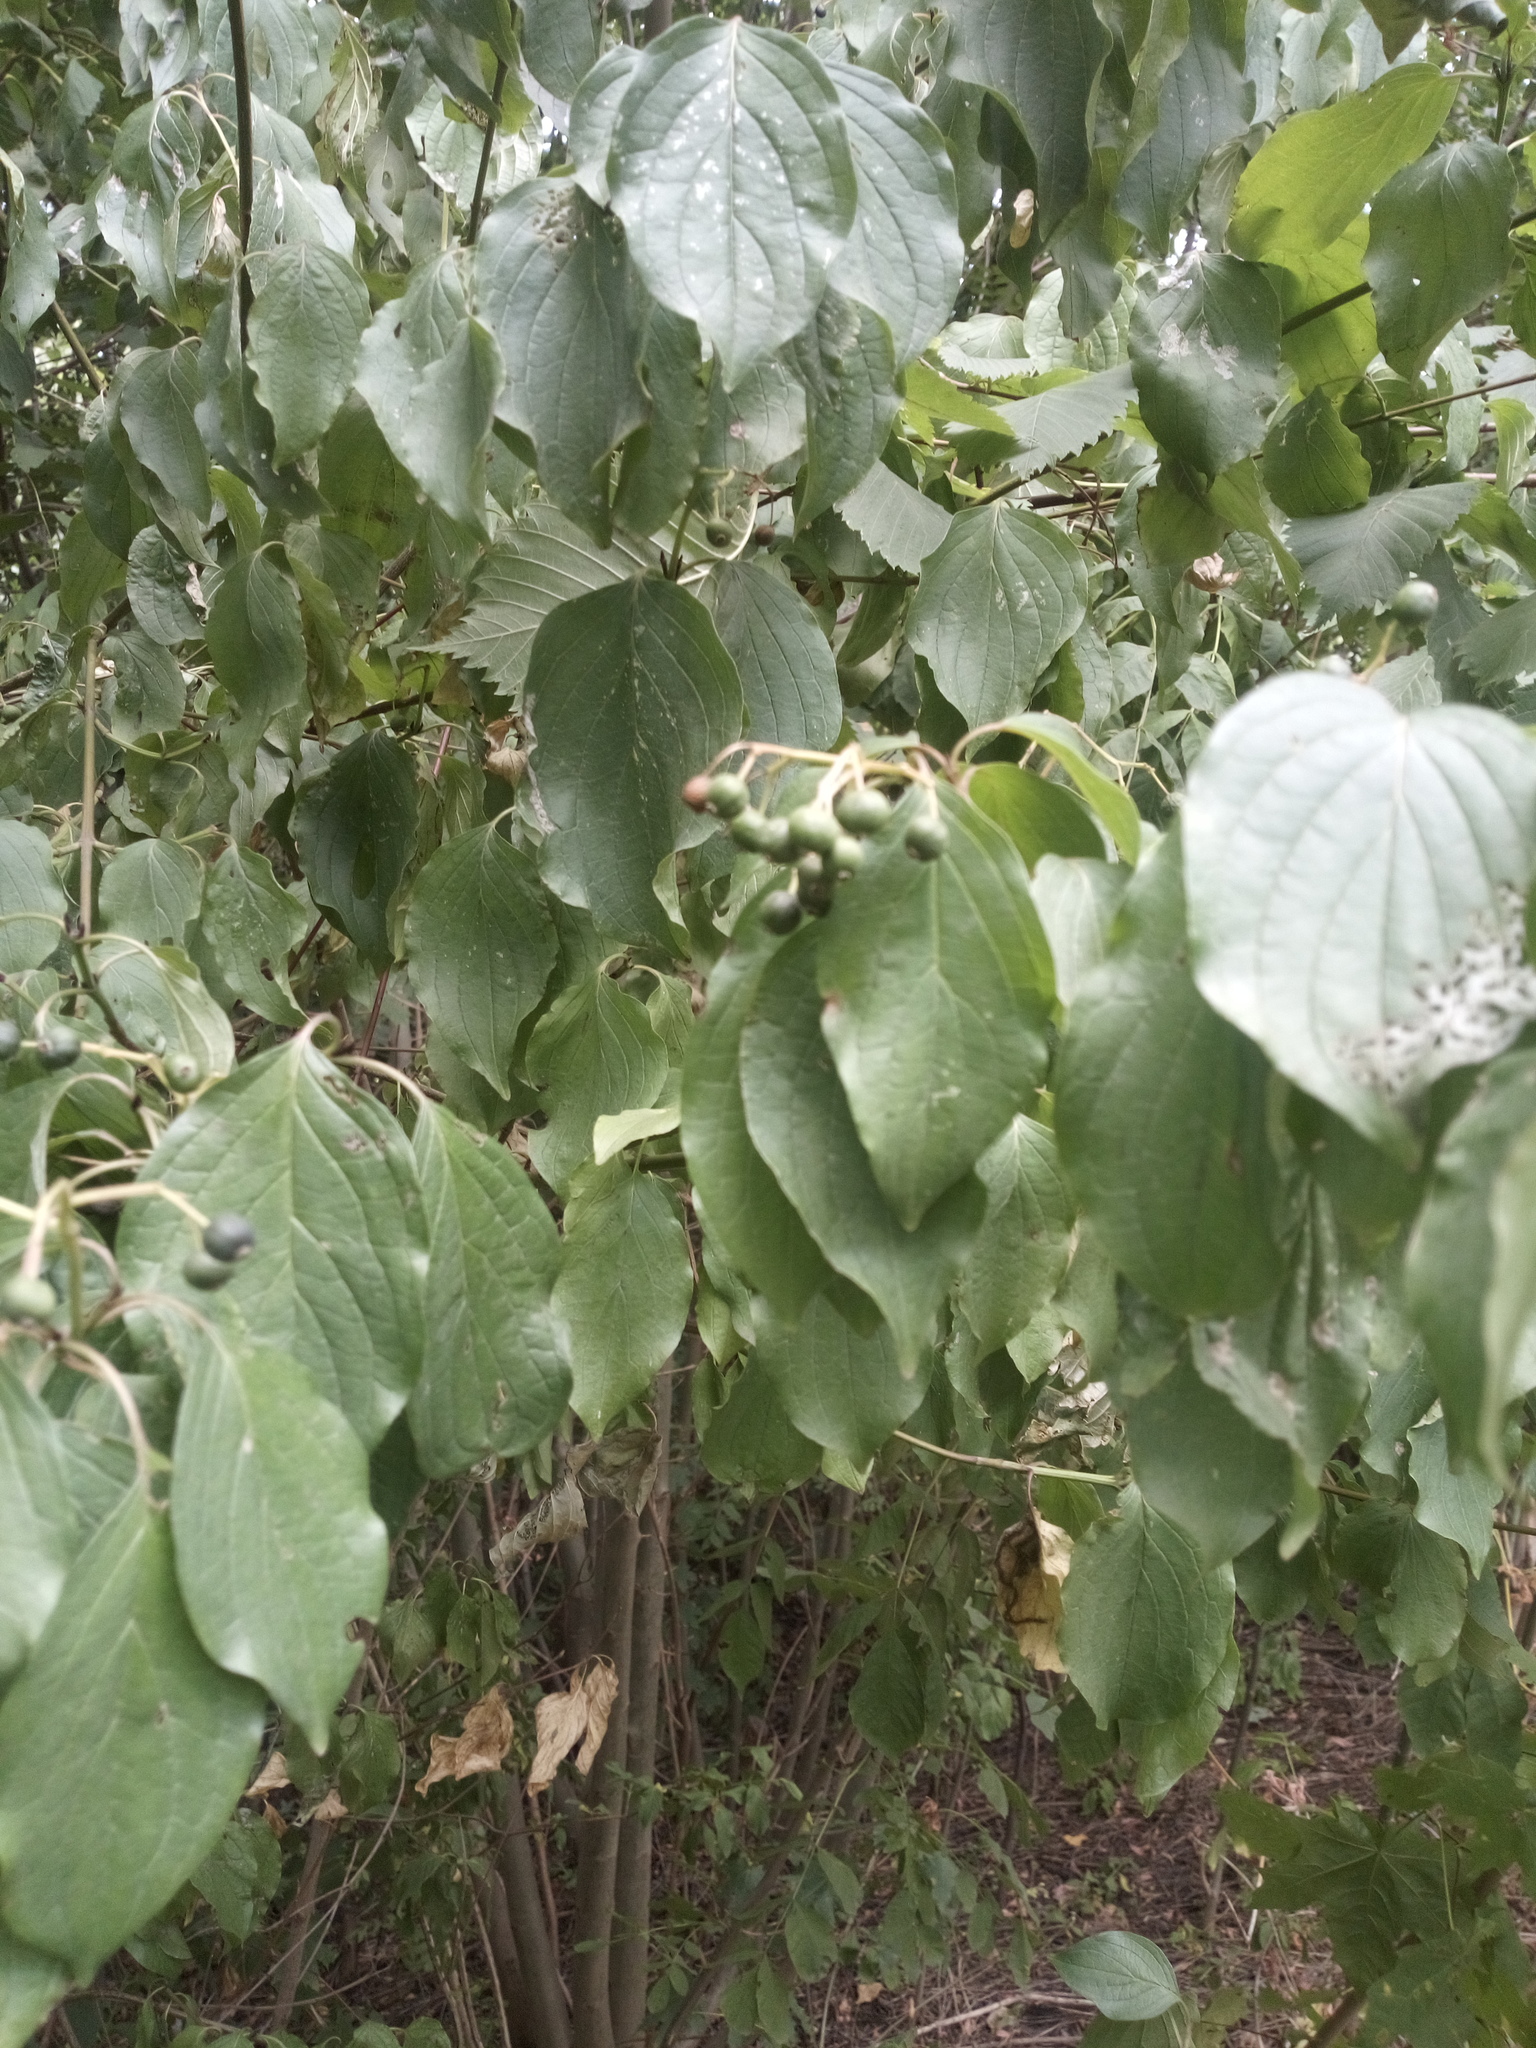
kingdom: Plantae
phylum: Tracheophyta
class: Magnoliopsida
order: Cornales
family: Cornaceae
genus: Cornus
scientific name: Cornus sanguinea
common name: Dogwood
